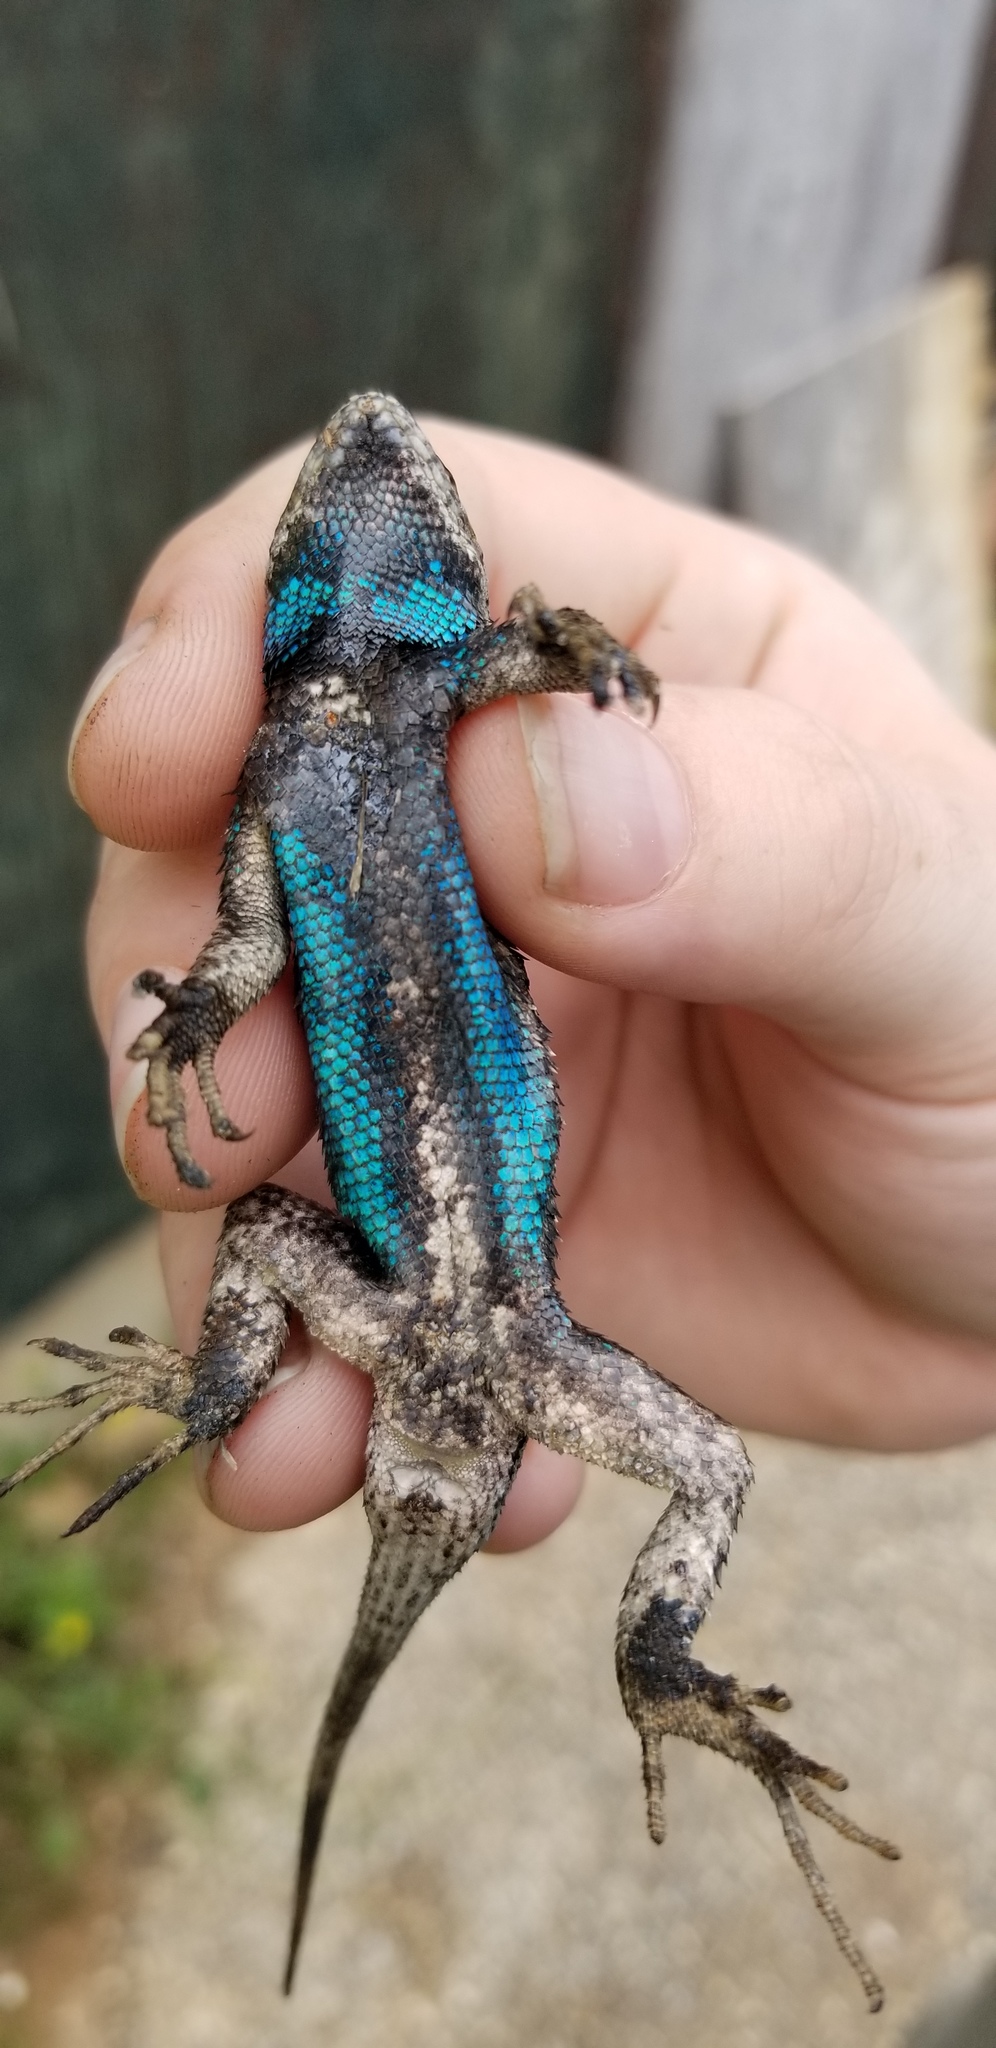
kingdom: Animalia
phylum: Chordata
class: Squamata
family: Phrynosomatidae
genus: Sceloporus
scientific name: Sceloporus undulatus
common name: Eastern fence lizard
